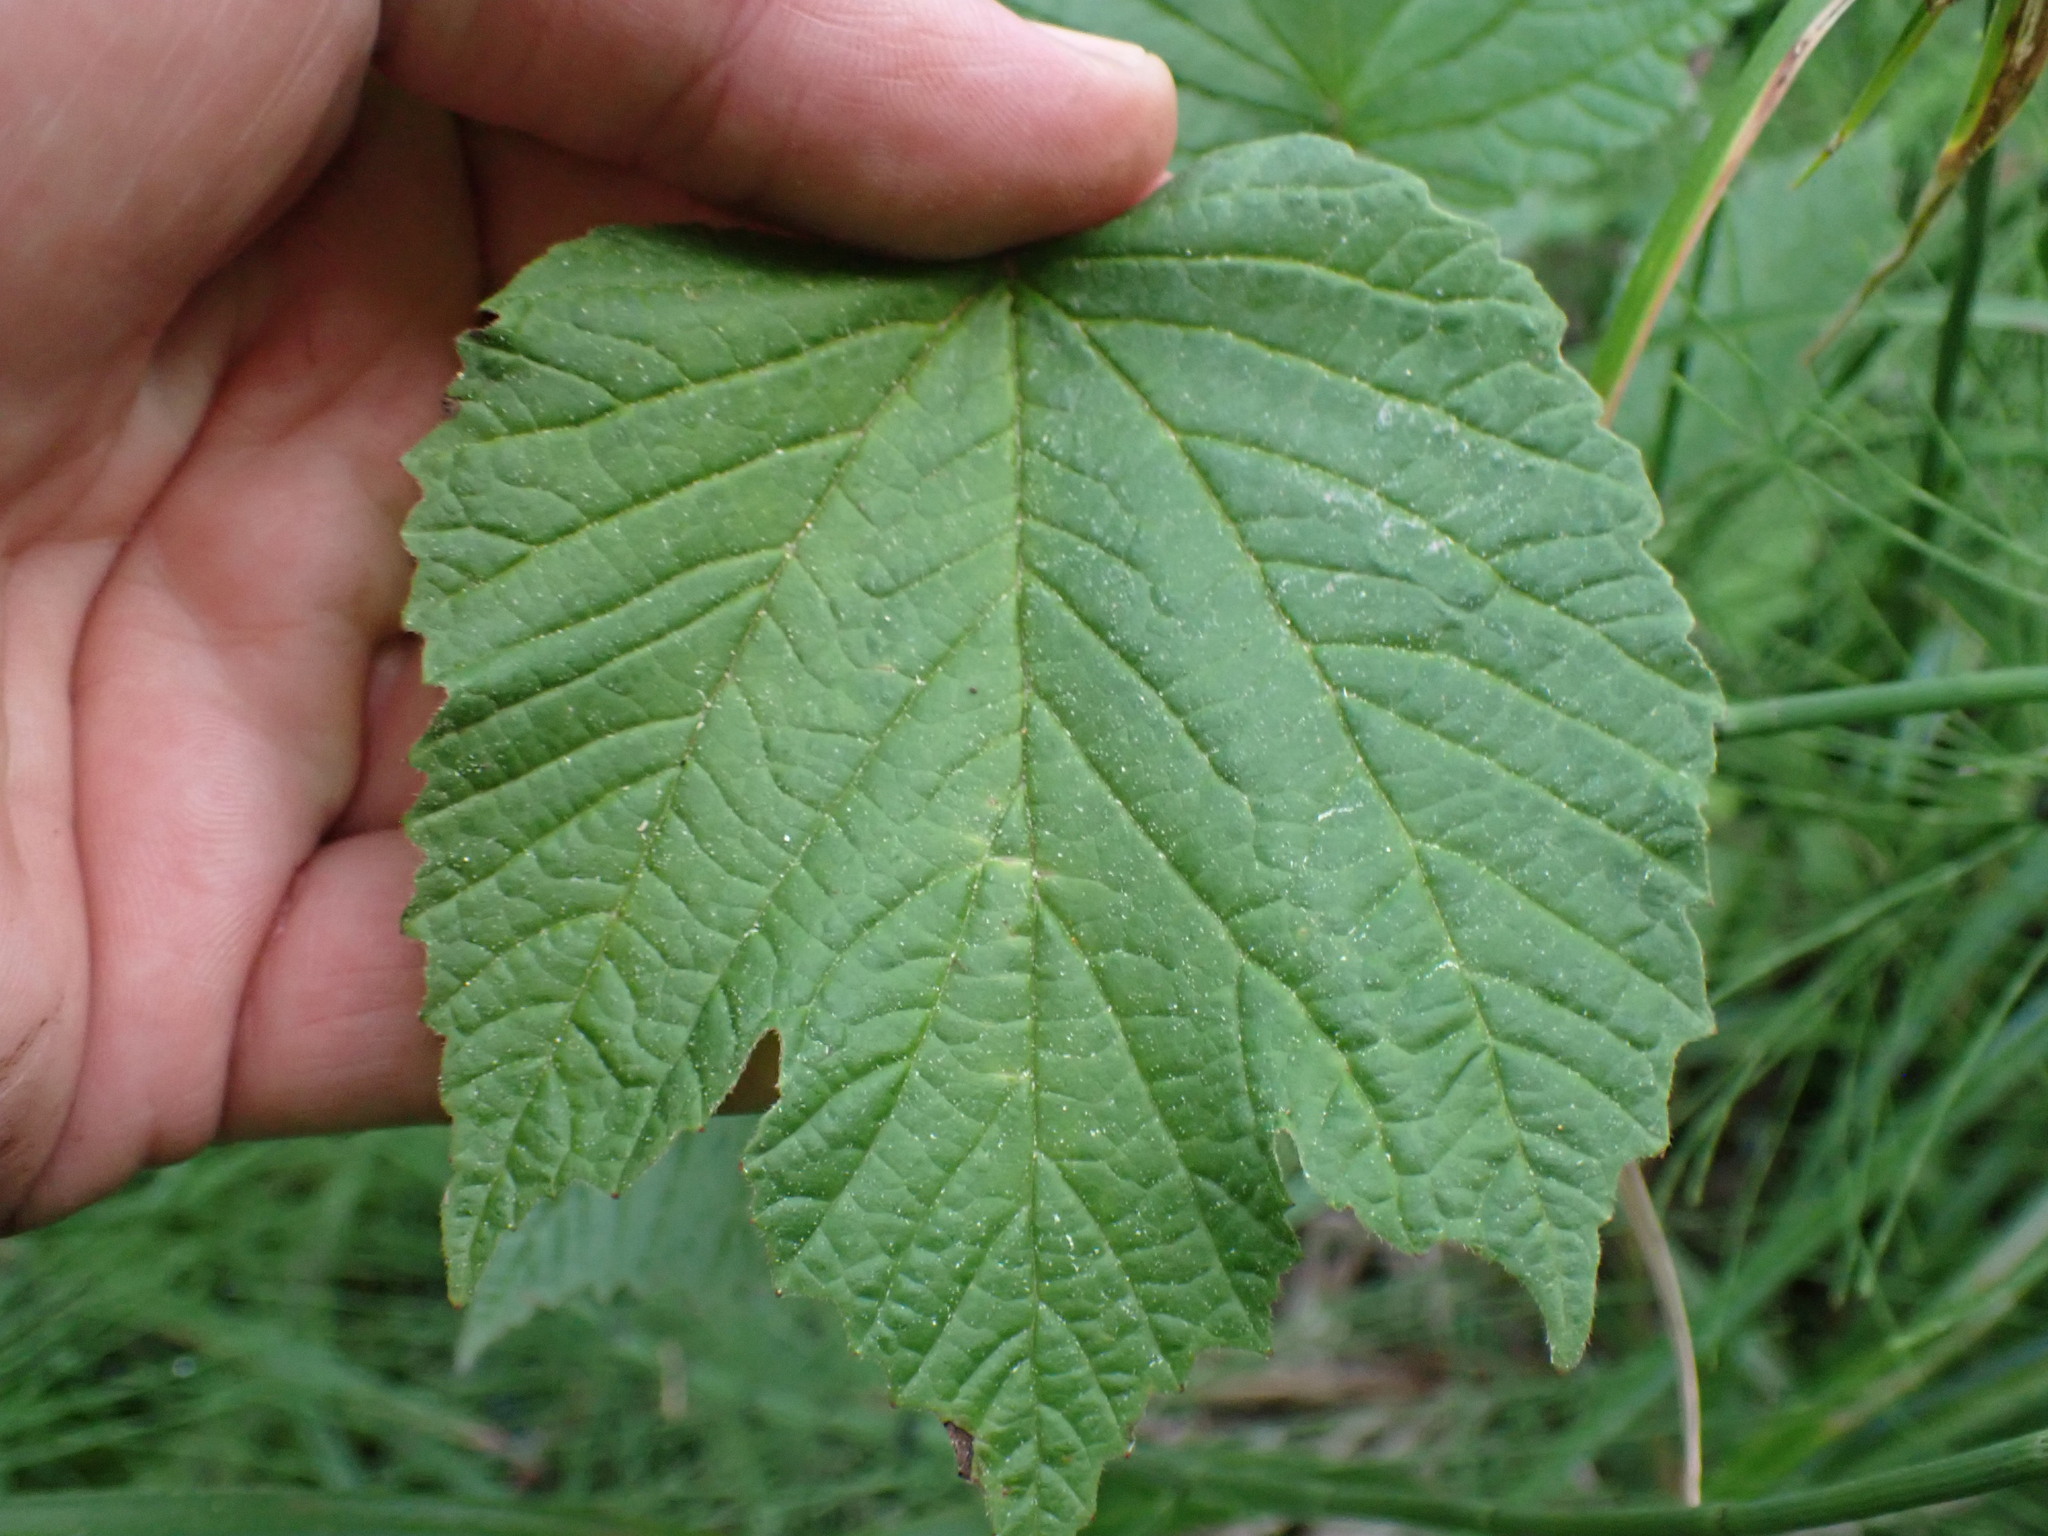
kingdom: Plantae
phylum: Tracheophyta
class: Magnoliopsida
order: Dipsacales
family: Viburnaceae
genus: Viburnum
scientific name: Viburnum edule
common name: Mooseberry
